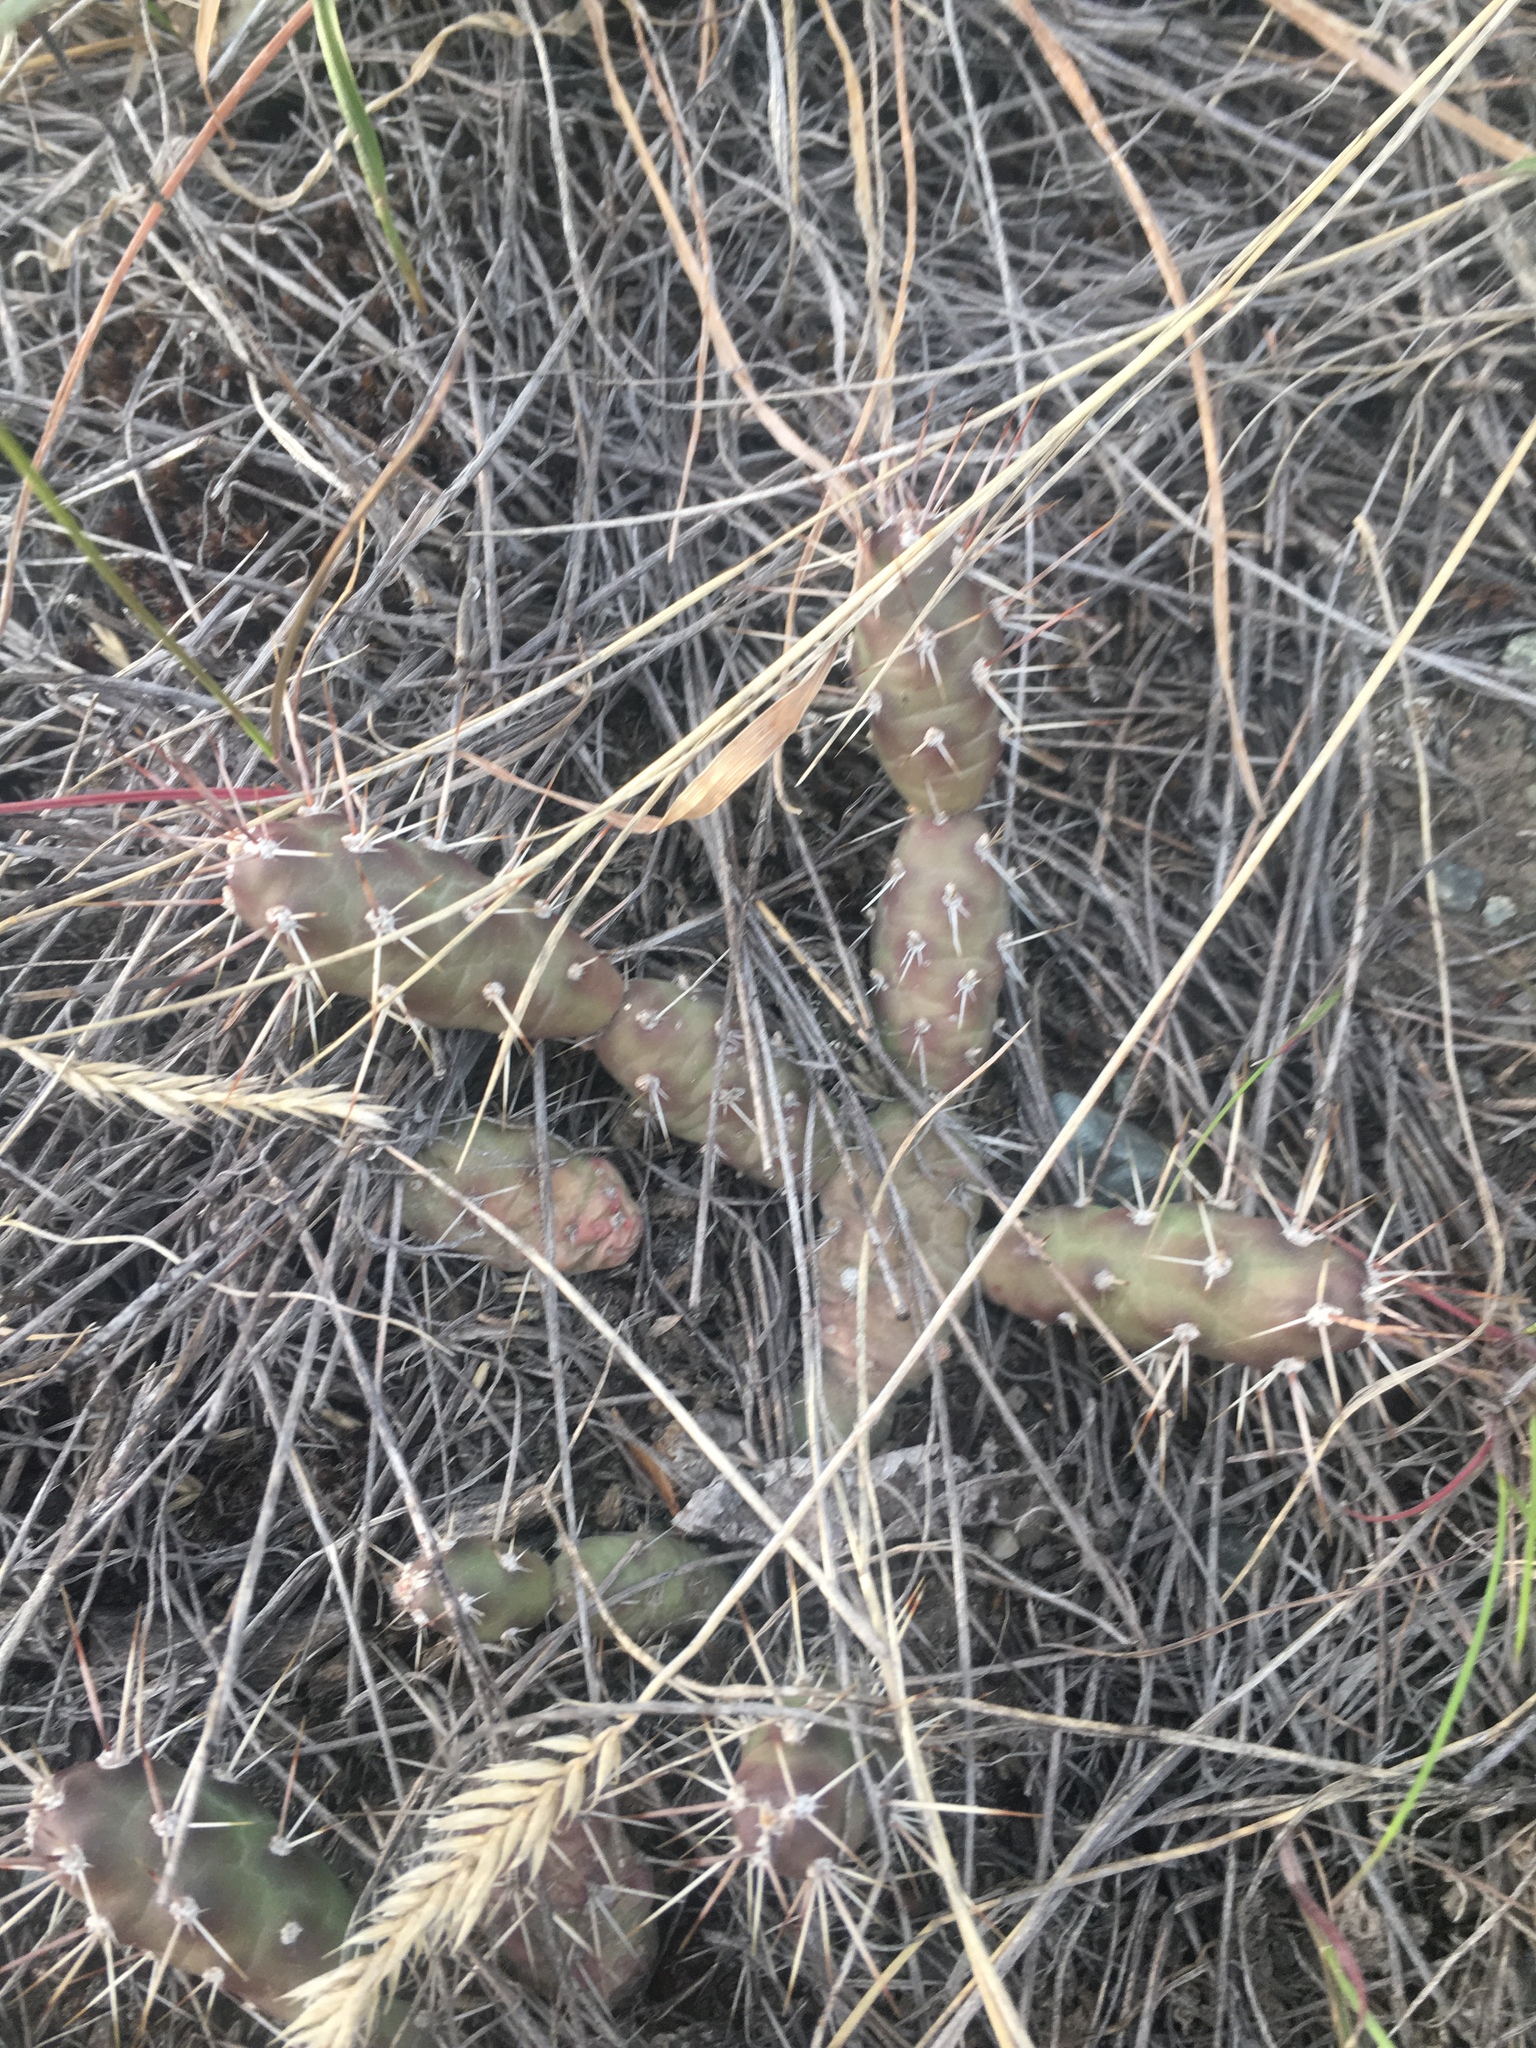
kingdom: Plantae
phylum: Tracheophyta
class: Magnoliopsida
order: Caryophyllales
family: Cactaceae
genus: Opuntia
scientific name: Opuntia fragilis
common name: Brittle cactus
